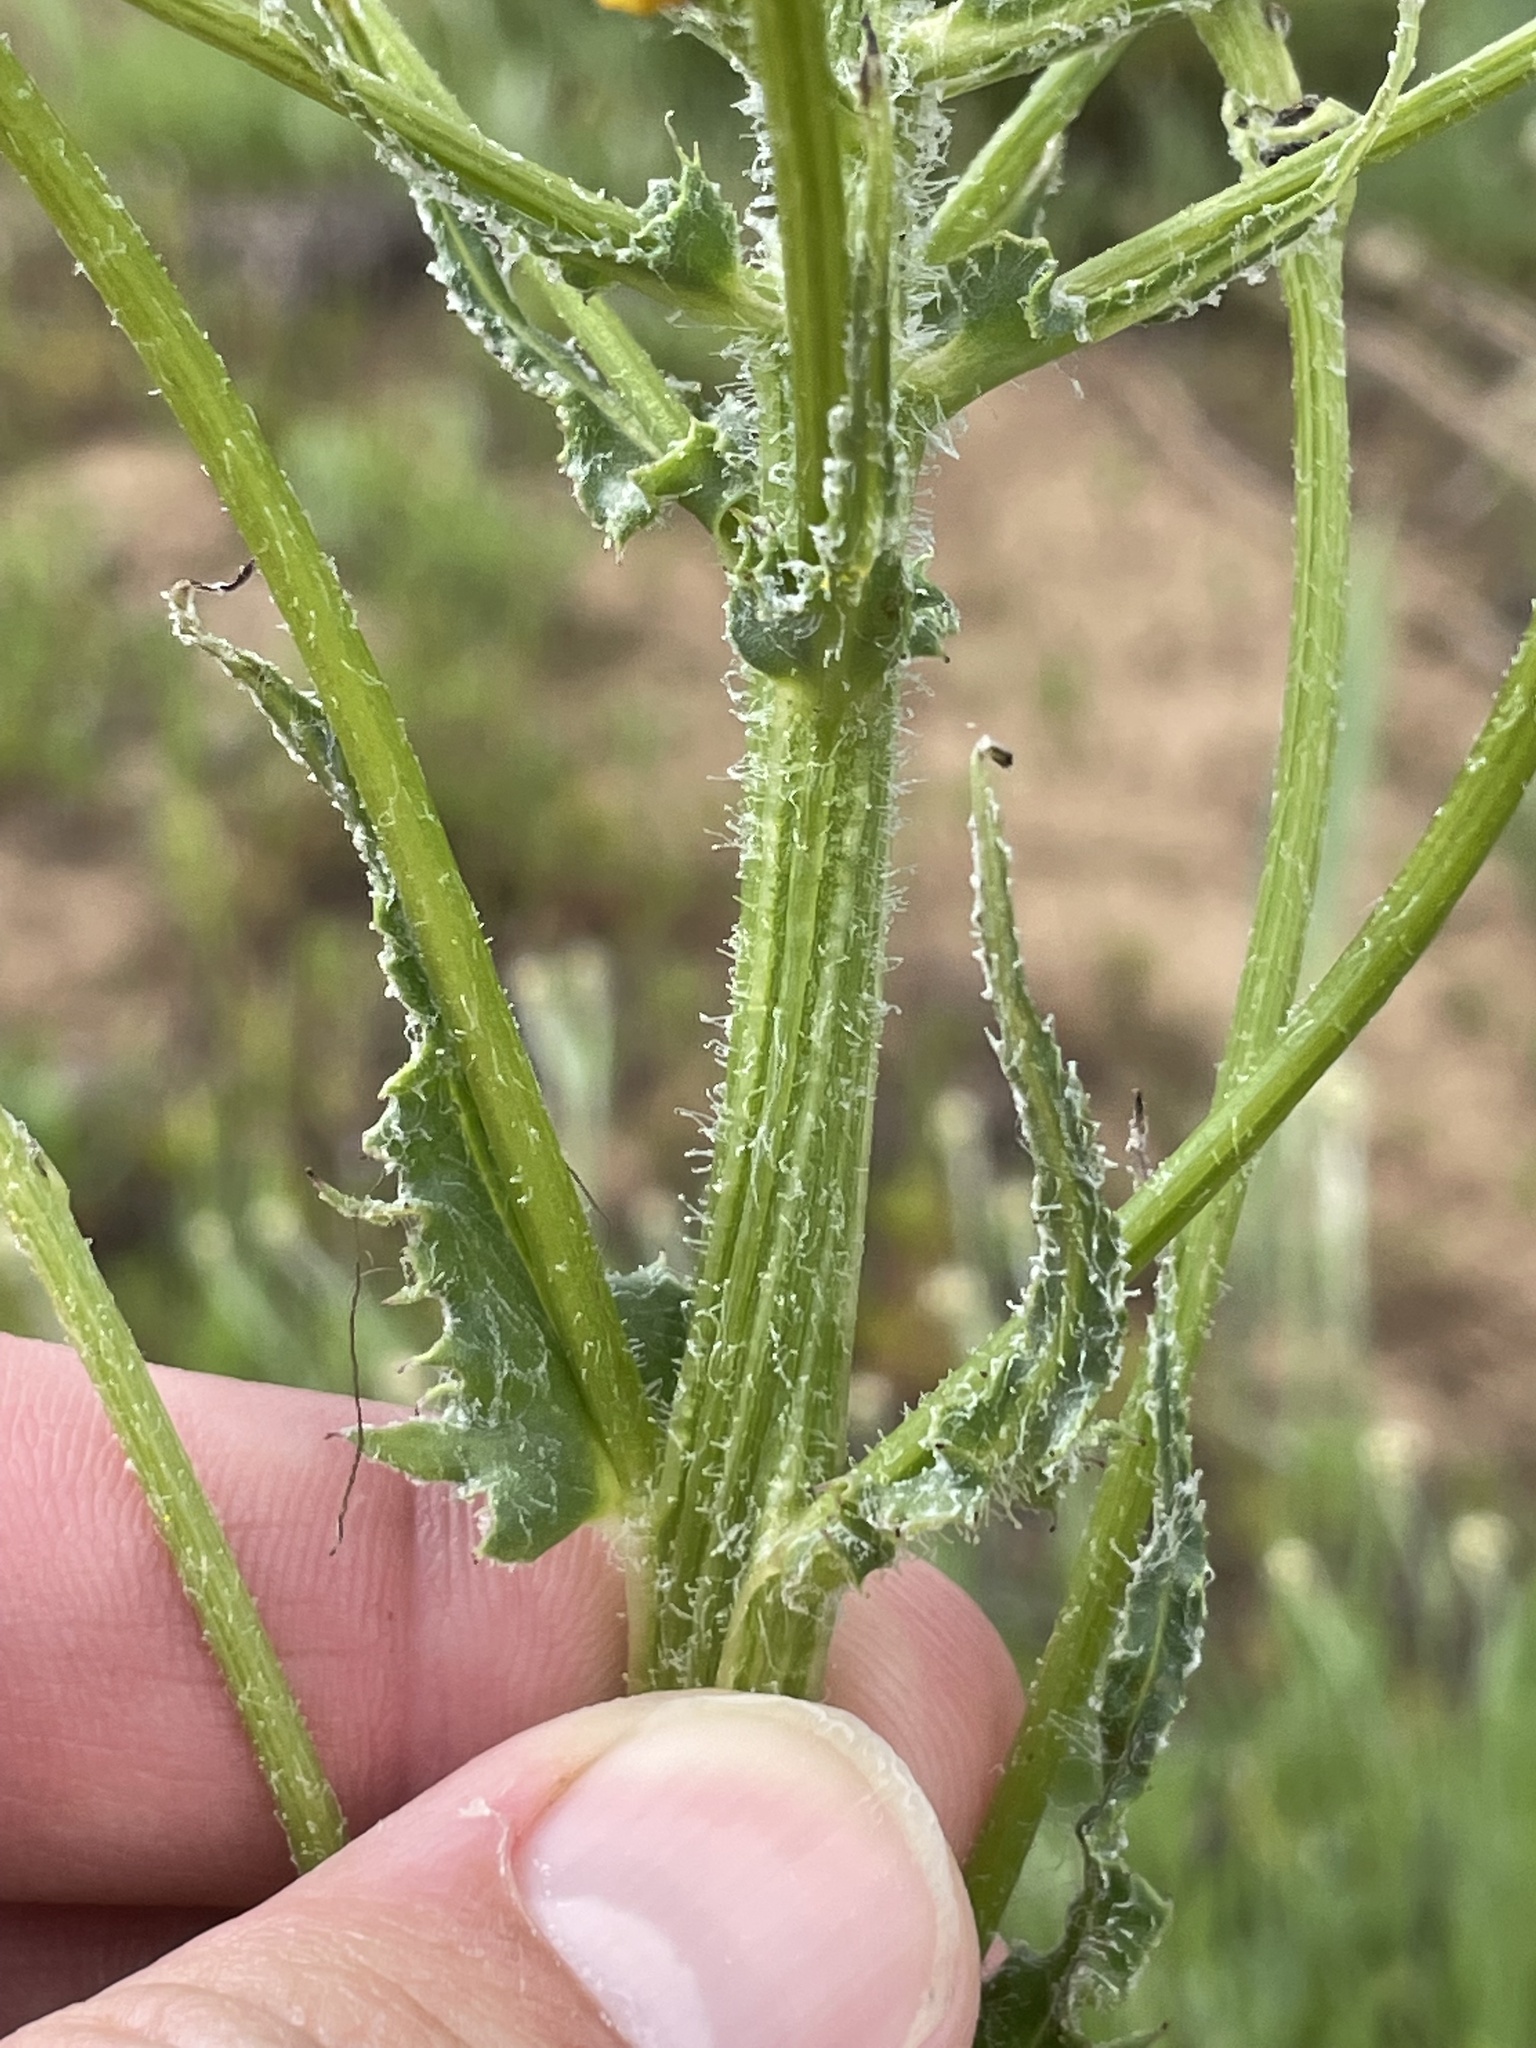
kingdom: Plantae
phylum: Tracheophyta
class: Magnoliopsida
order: Asterales
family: Asteraceae
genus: Senecio
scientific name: Senecio integerrimus
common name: Gaugeplant
